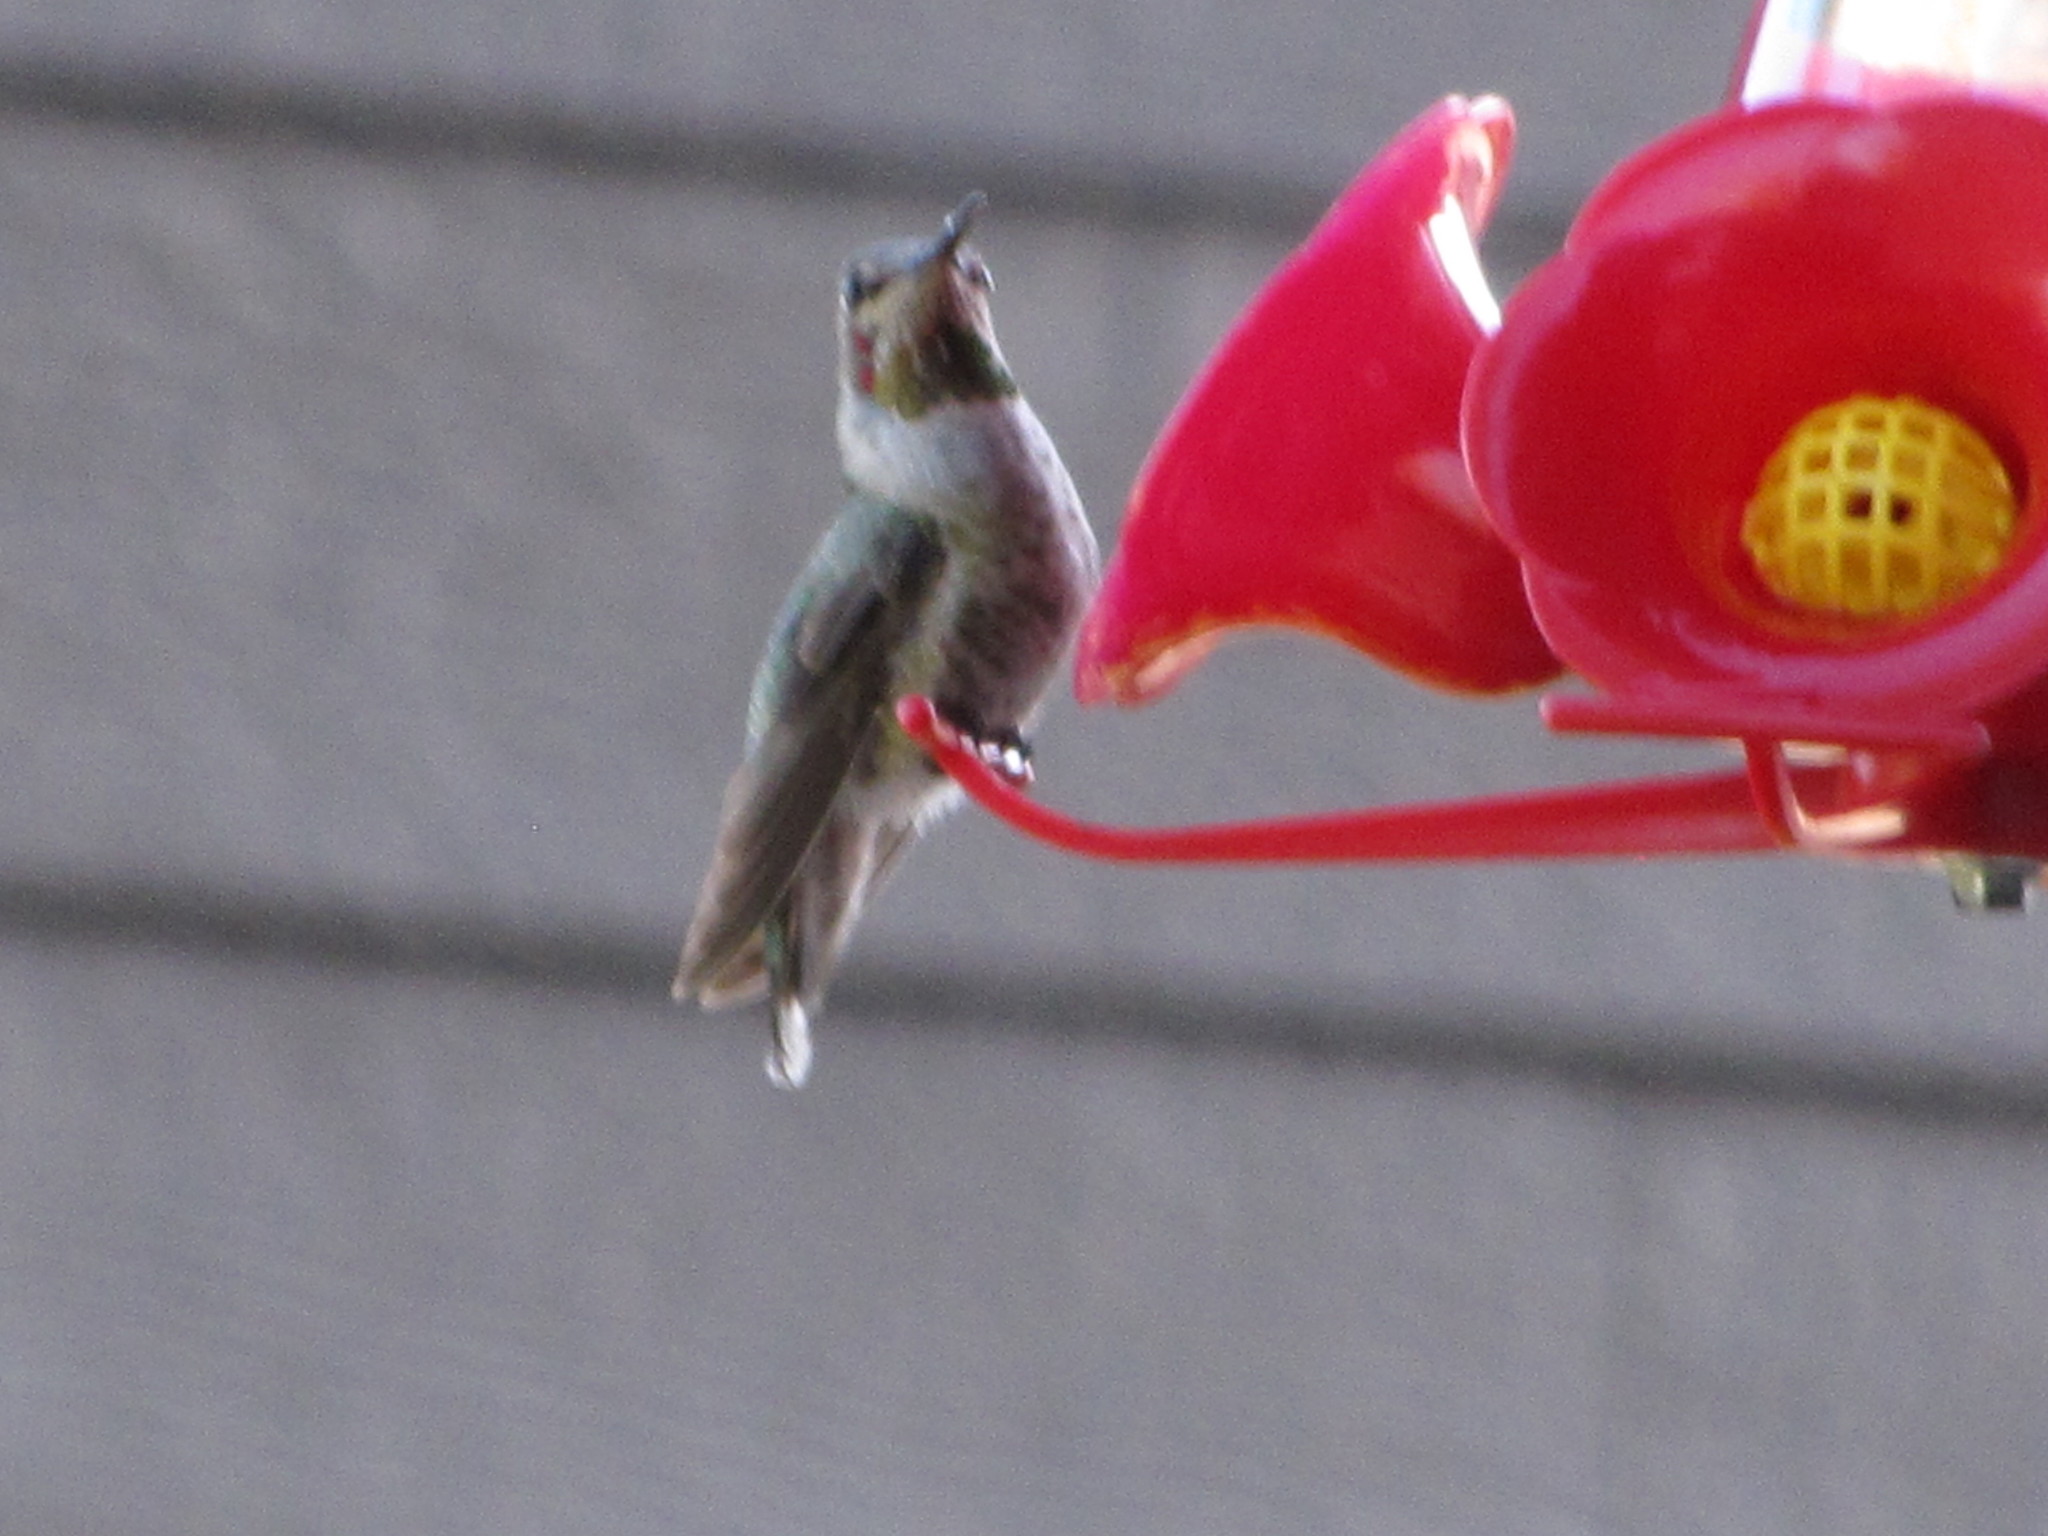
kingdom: Animalia
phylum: Chordata
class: Aves
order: Apodiformes
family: Trochilidae
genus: Calypte
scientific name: Calypte anna
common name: Anna's hummingbird
